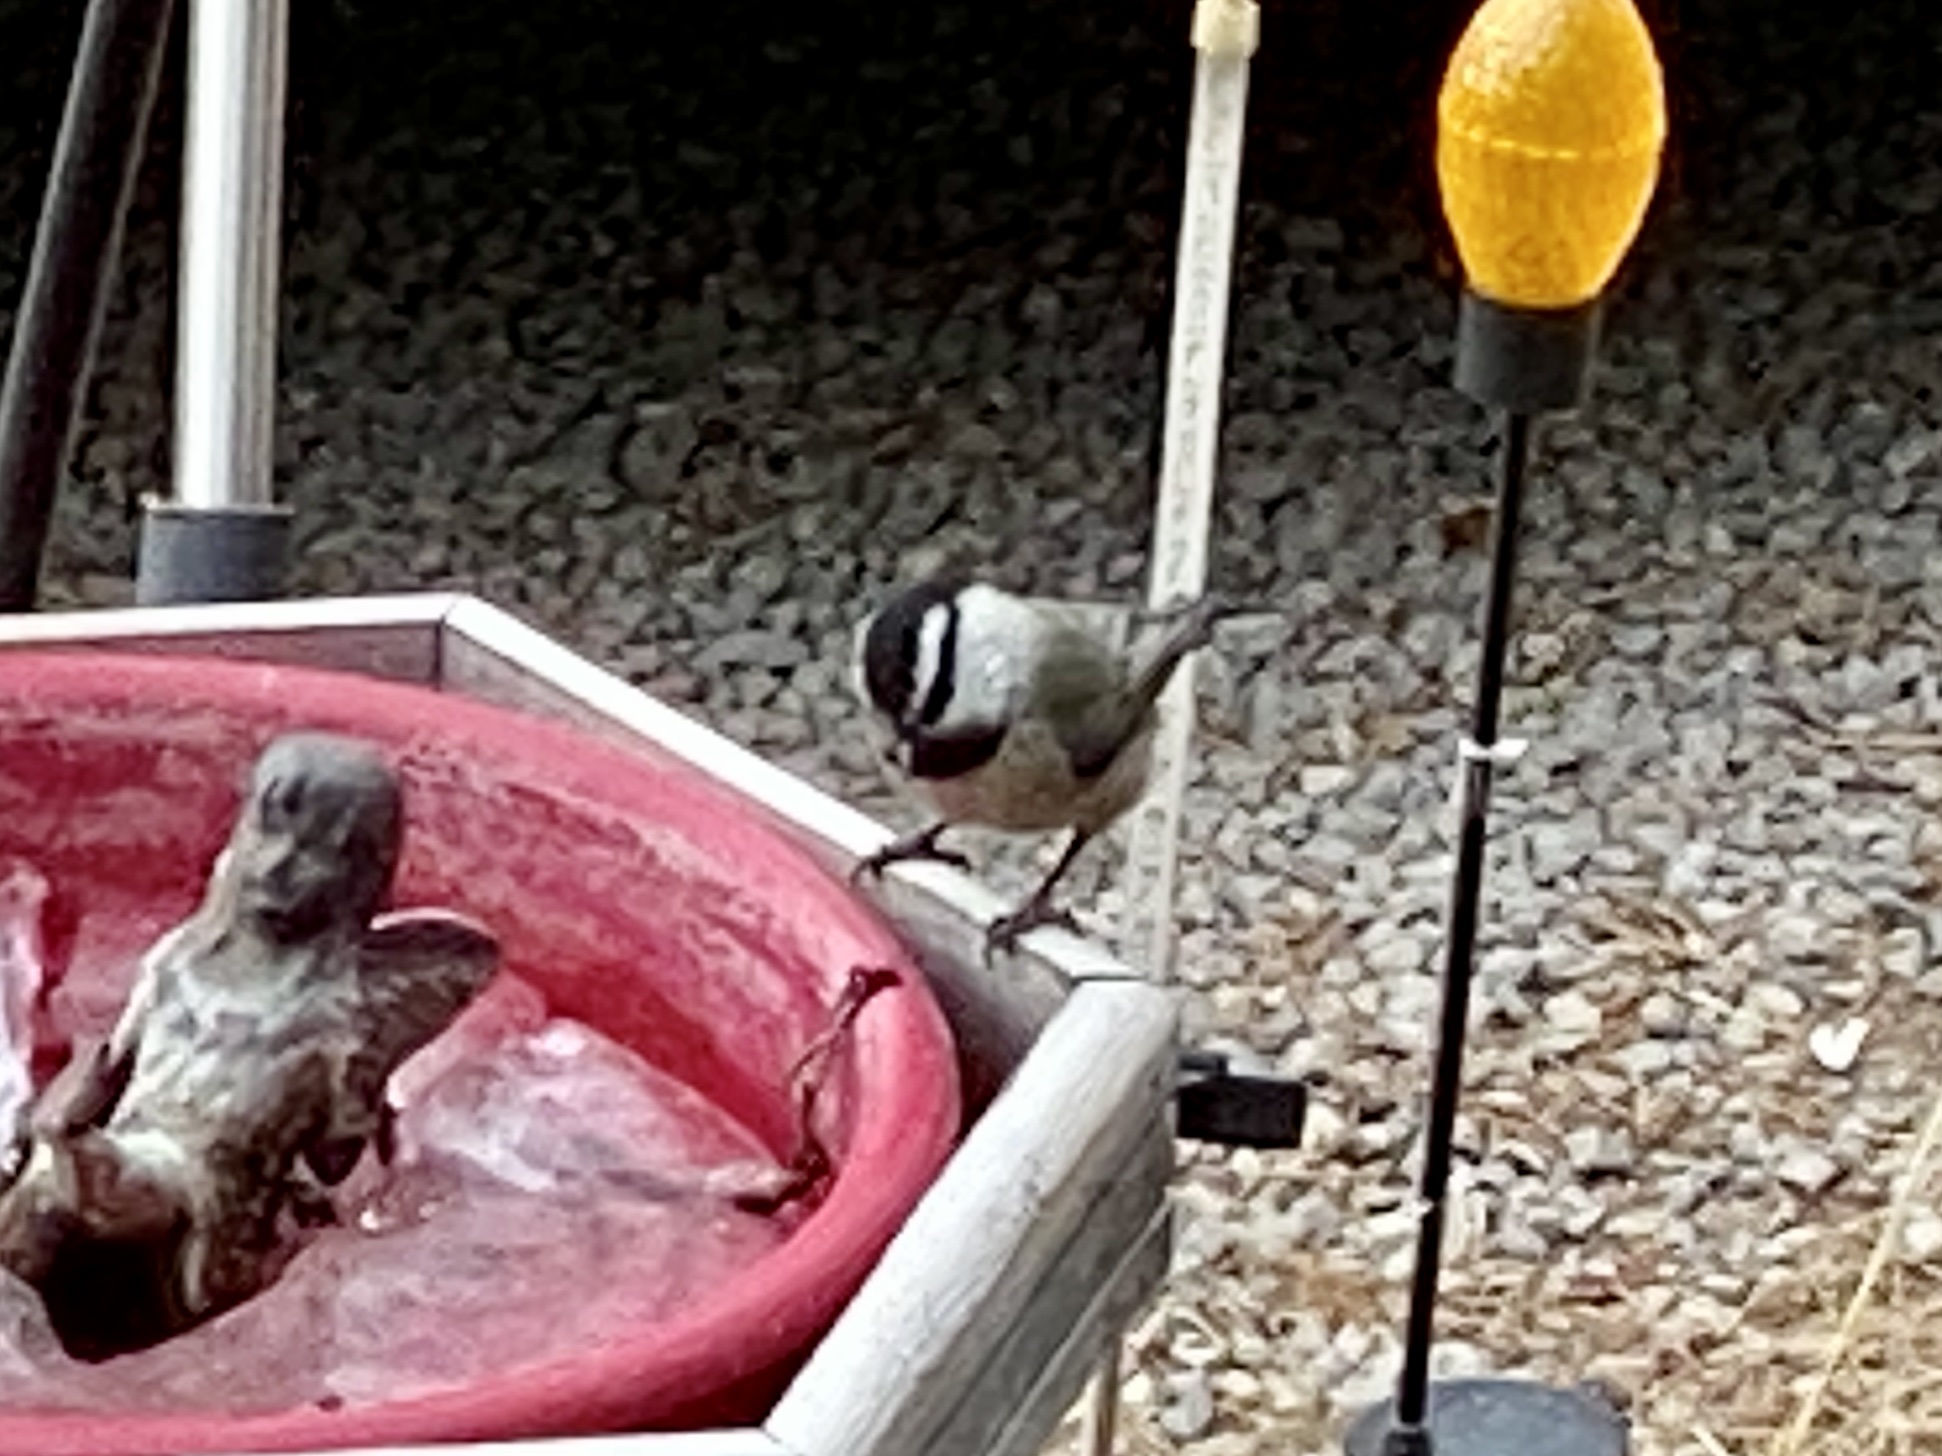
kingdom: Animalia
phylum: Chordata
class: Aves
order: Passeriformes
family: Paridae
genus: Poecile
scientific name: Poecile gambeli
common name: Mountain chickadee
